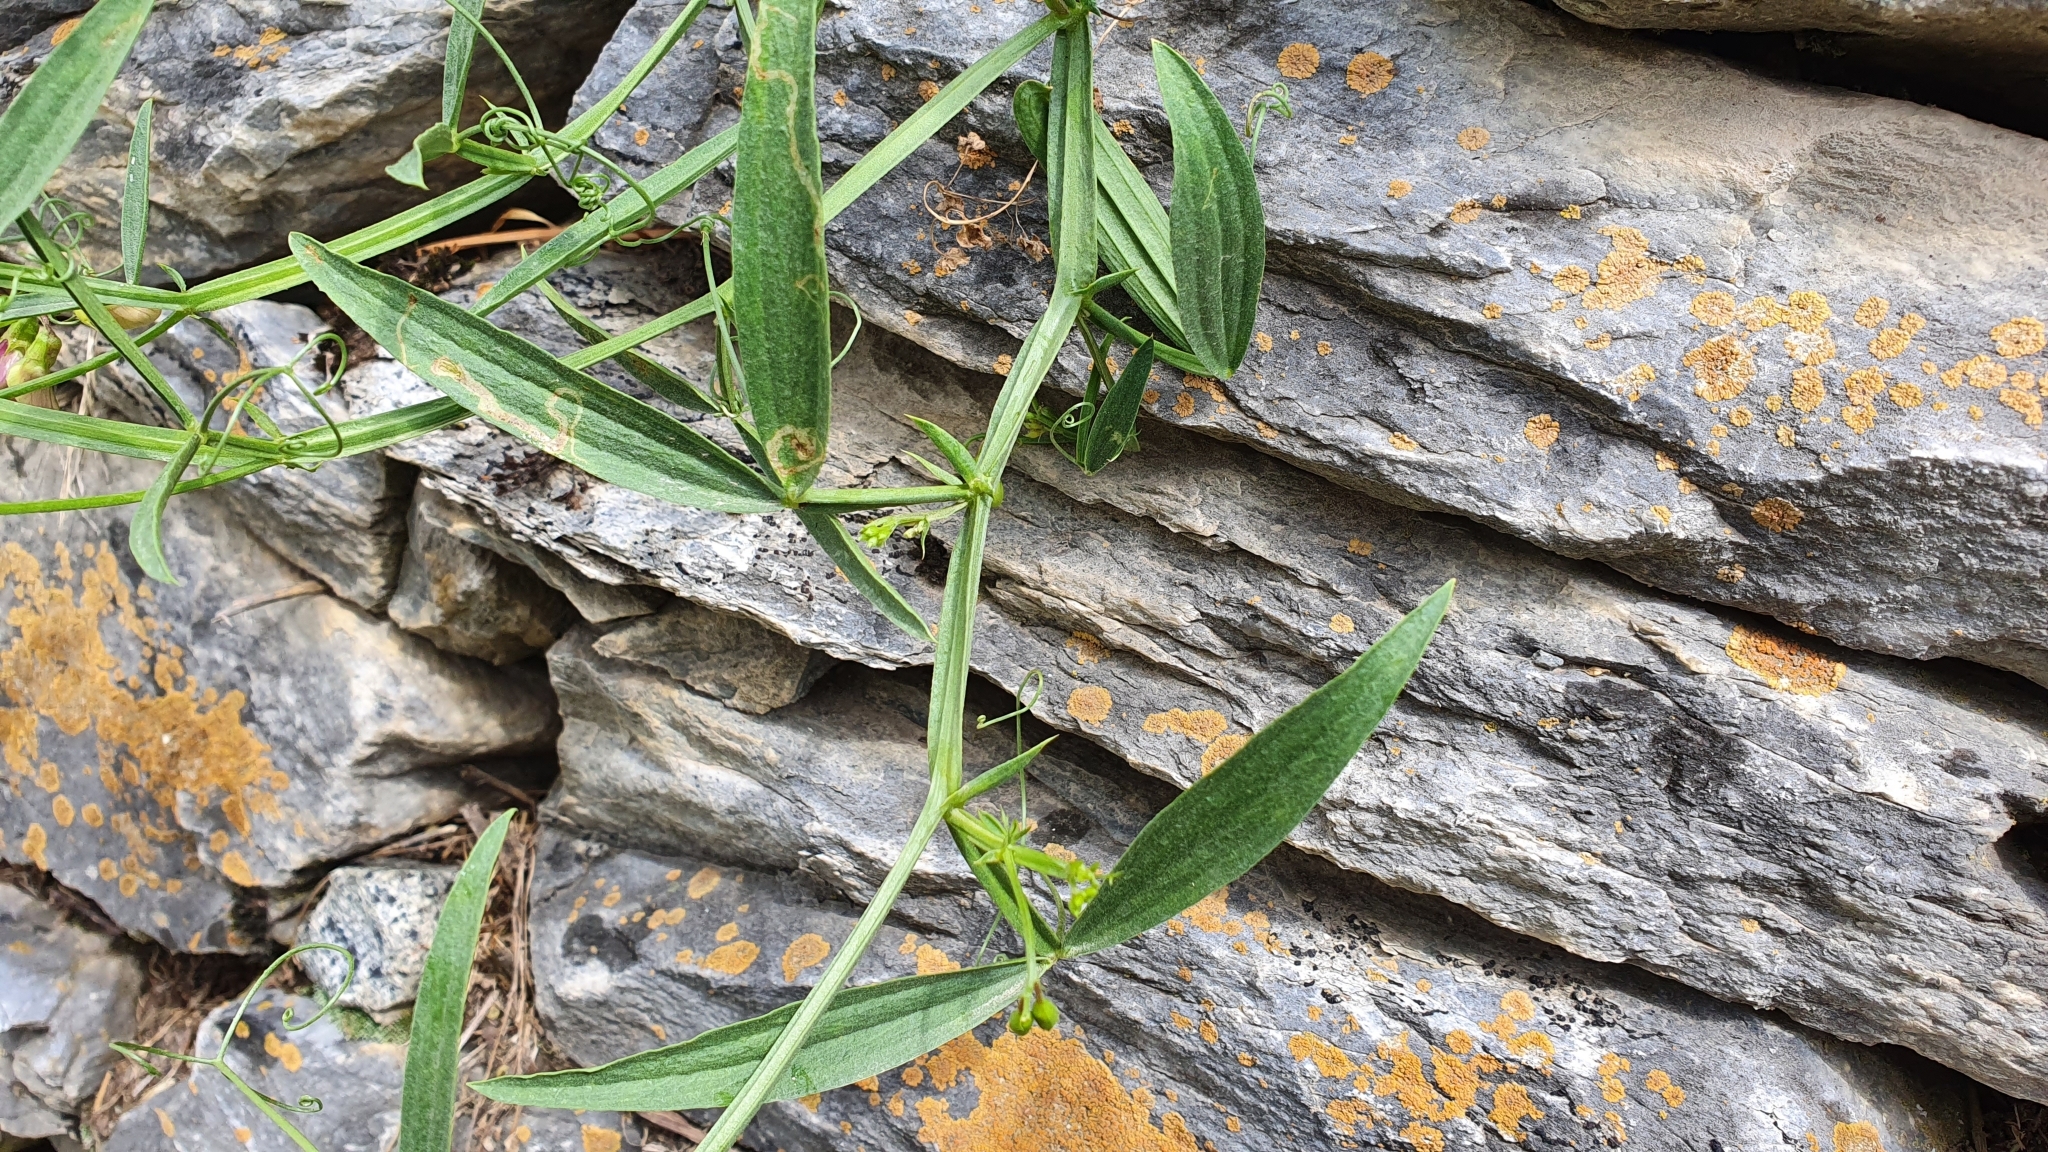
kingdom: Plantae
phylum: Tracheophyta
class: Magnoliopsida
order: Fabales
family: Fabaceae
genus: Lathyrus
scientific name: Lathyrus sylvestris
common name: Flat pea
